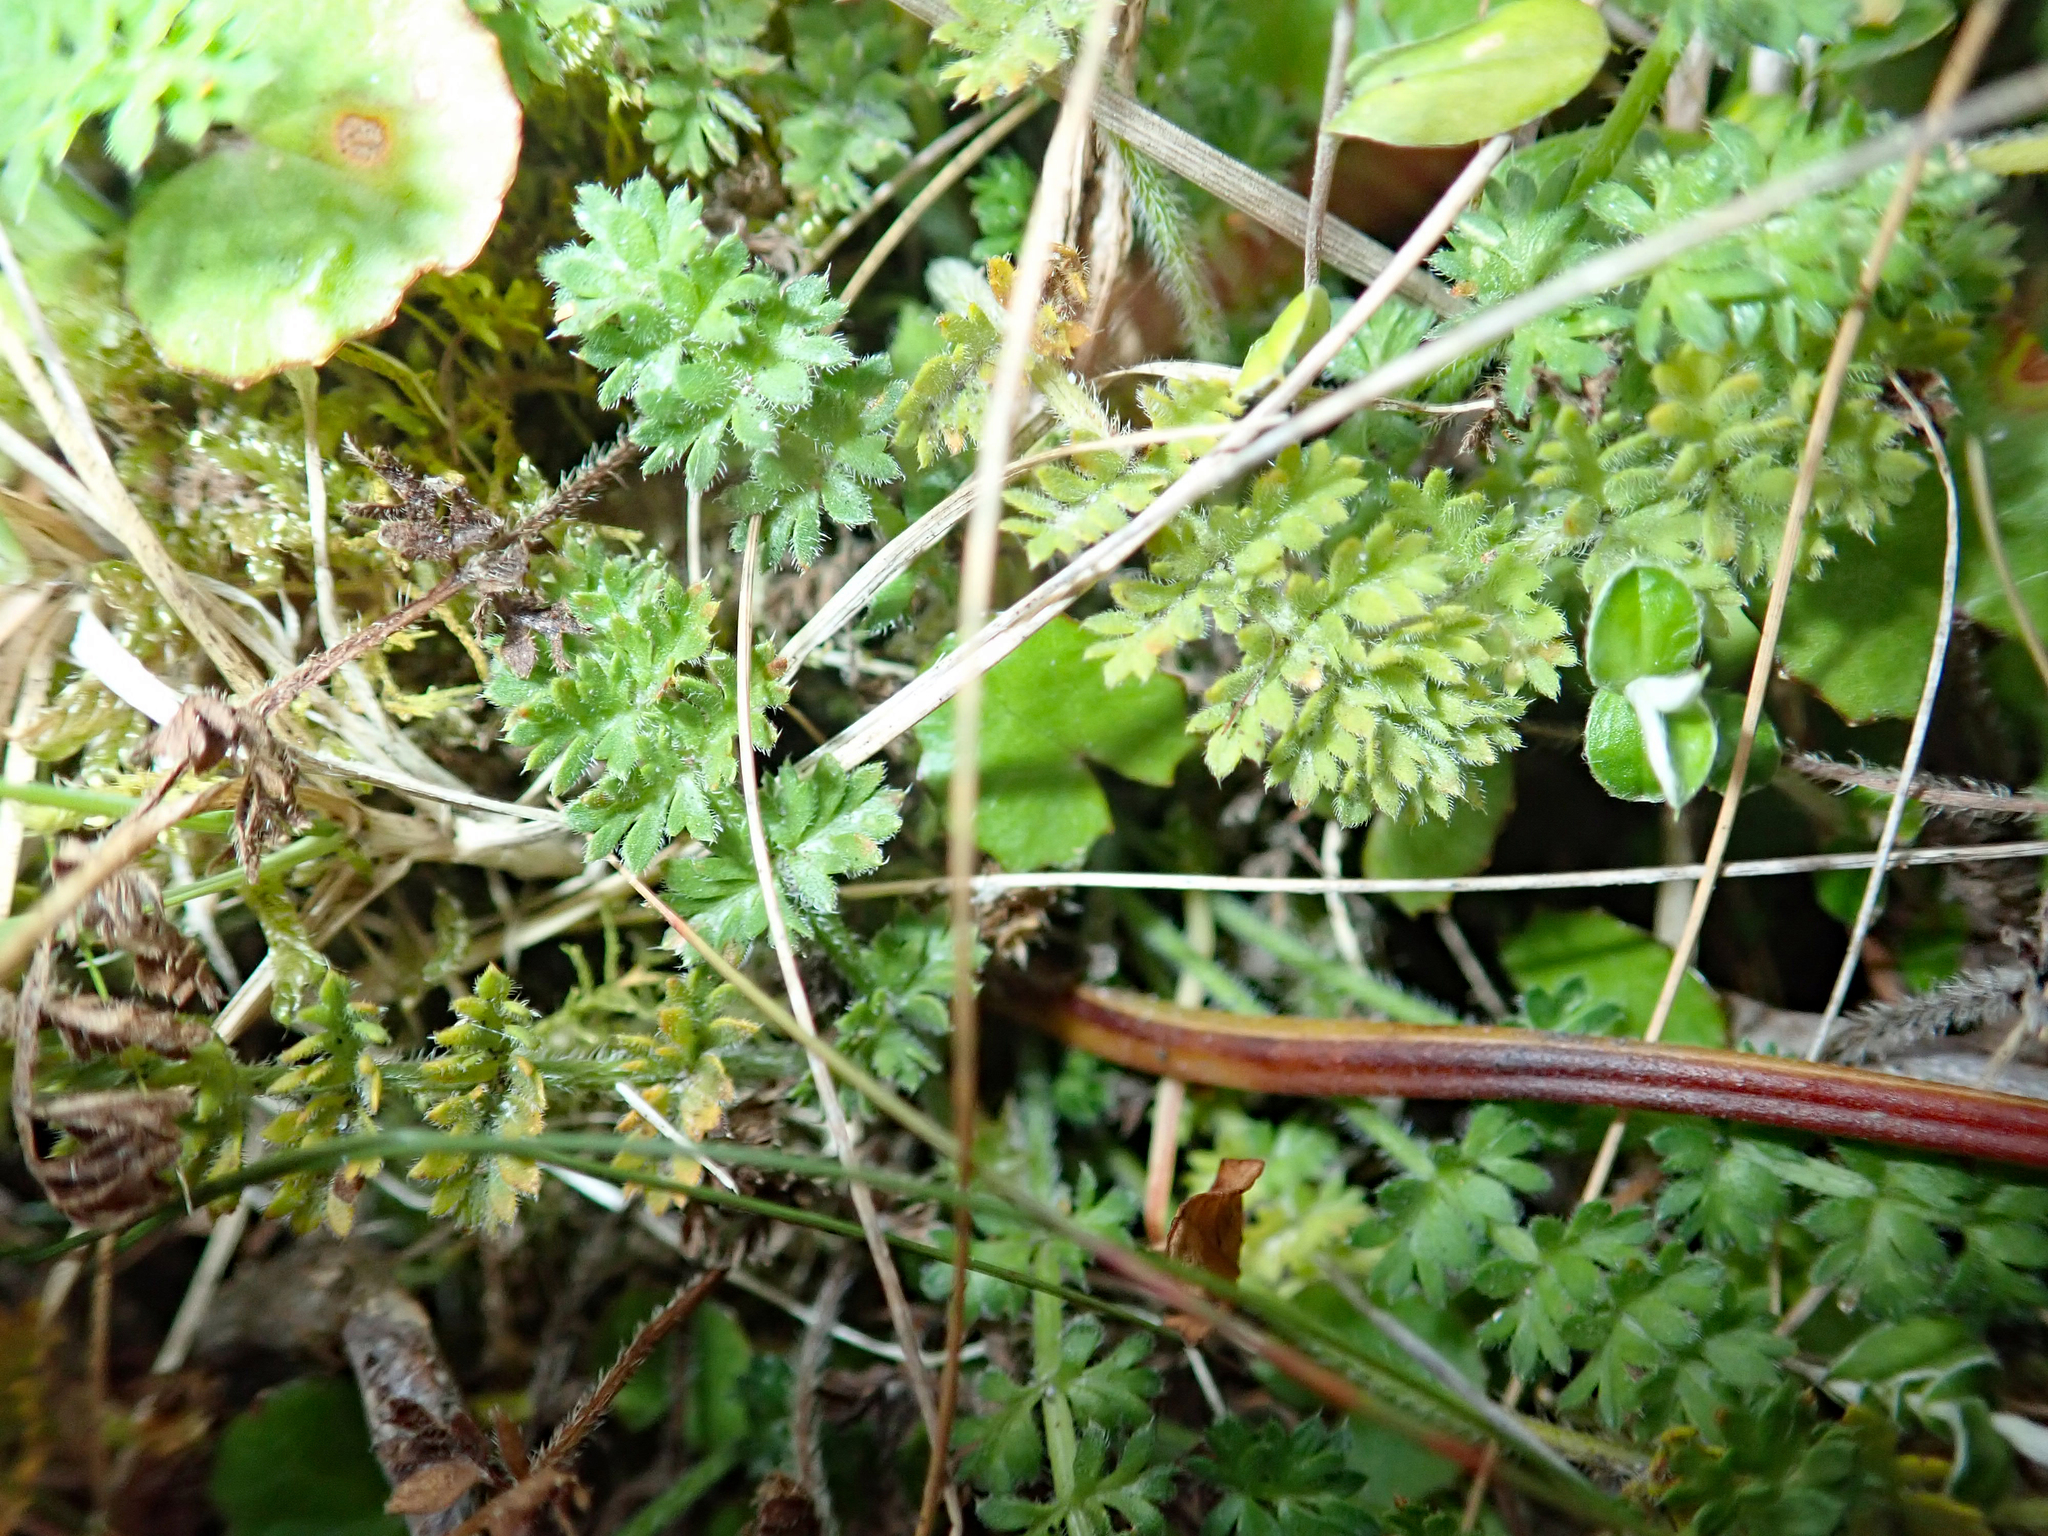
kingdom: Plantae
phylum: Tracheophyta
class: Magnoliopsida
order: Apiales
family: Apiaceae
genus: Chaerophyllum
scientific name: Chaerophyllum colensoi
